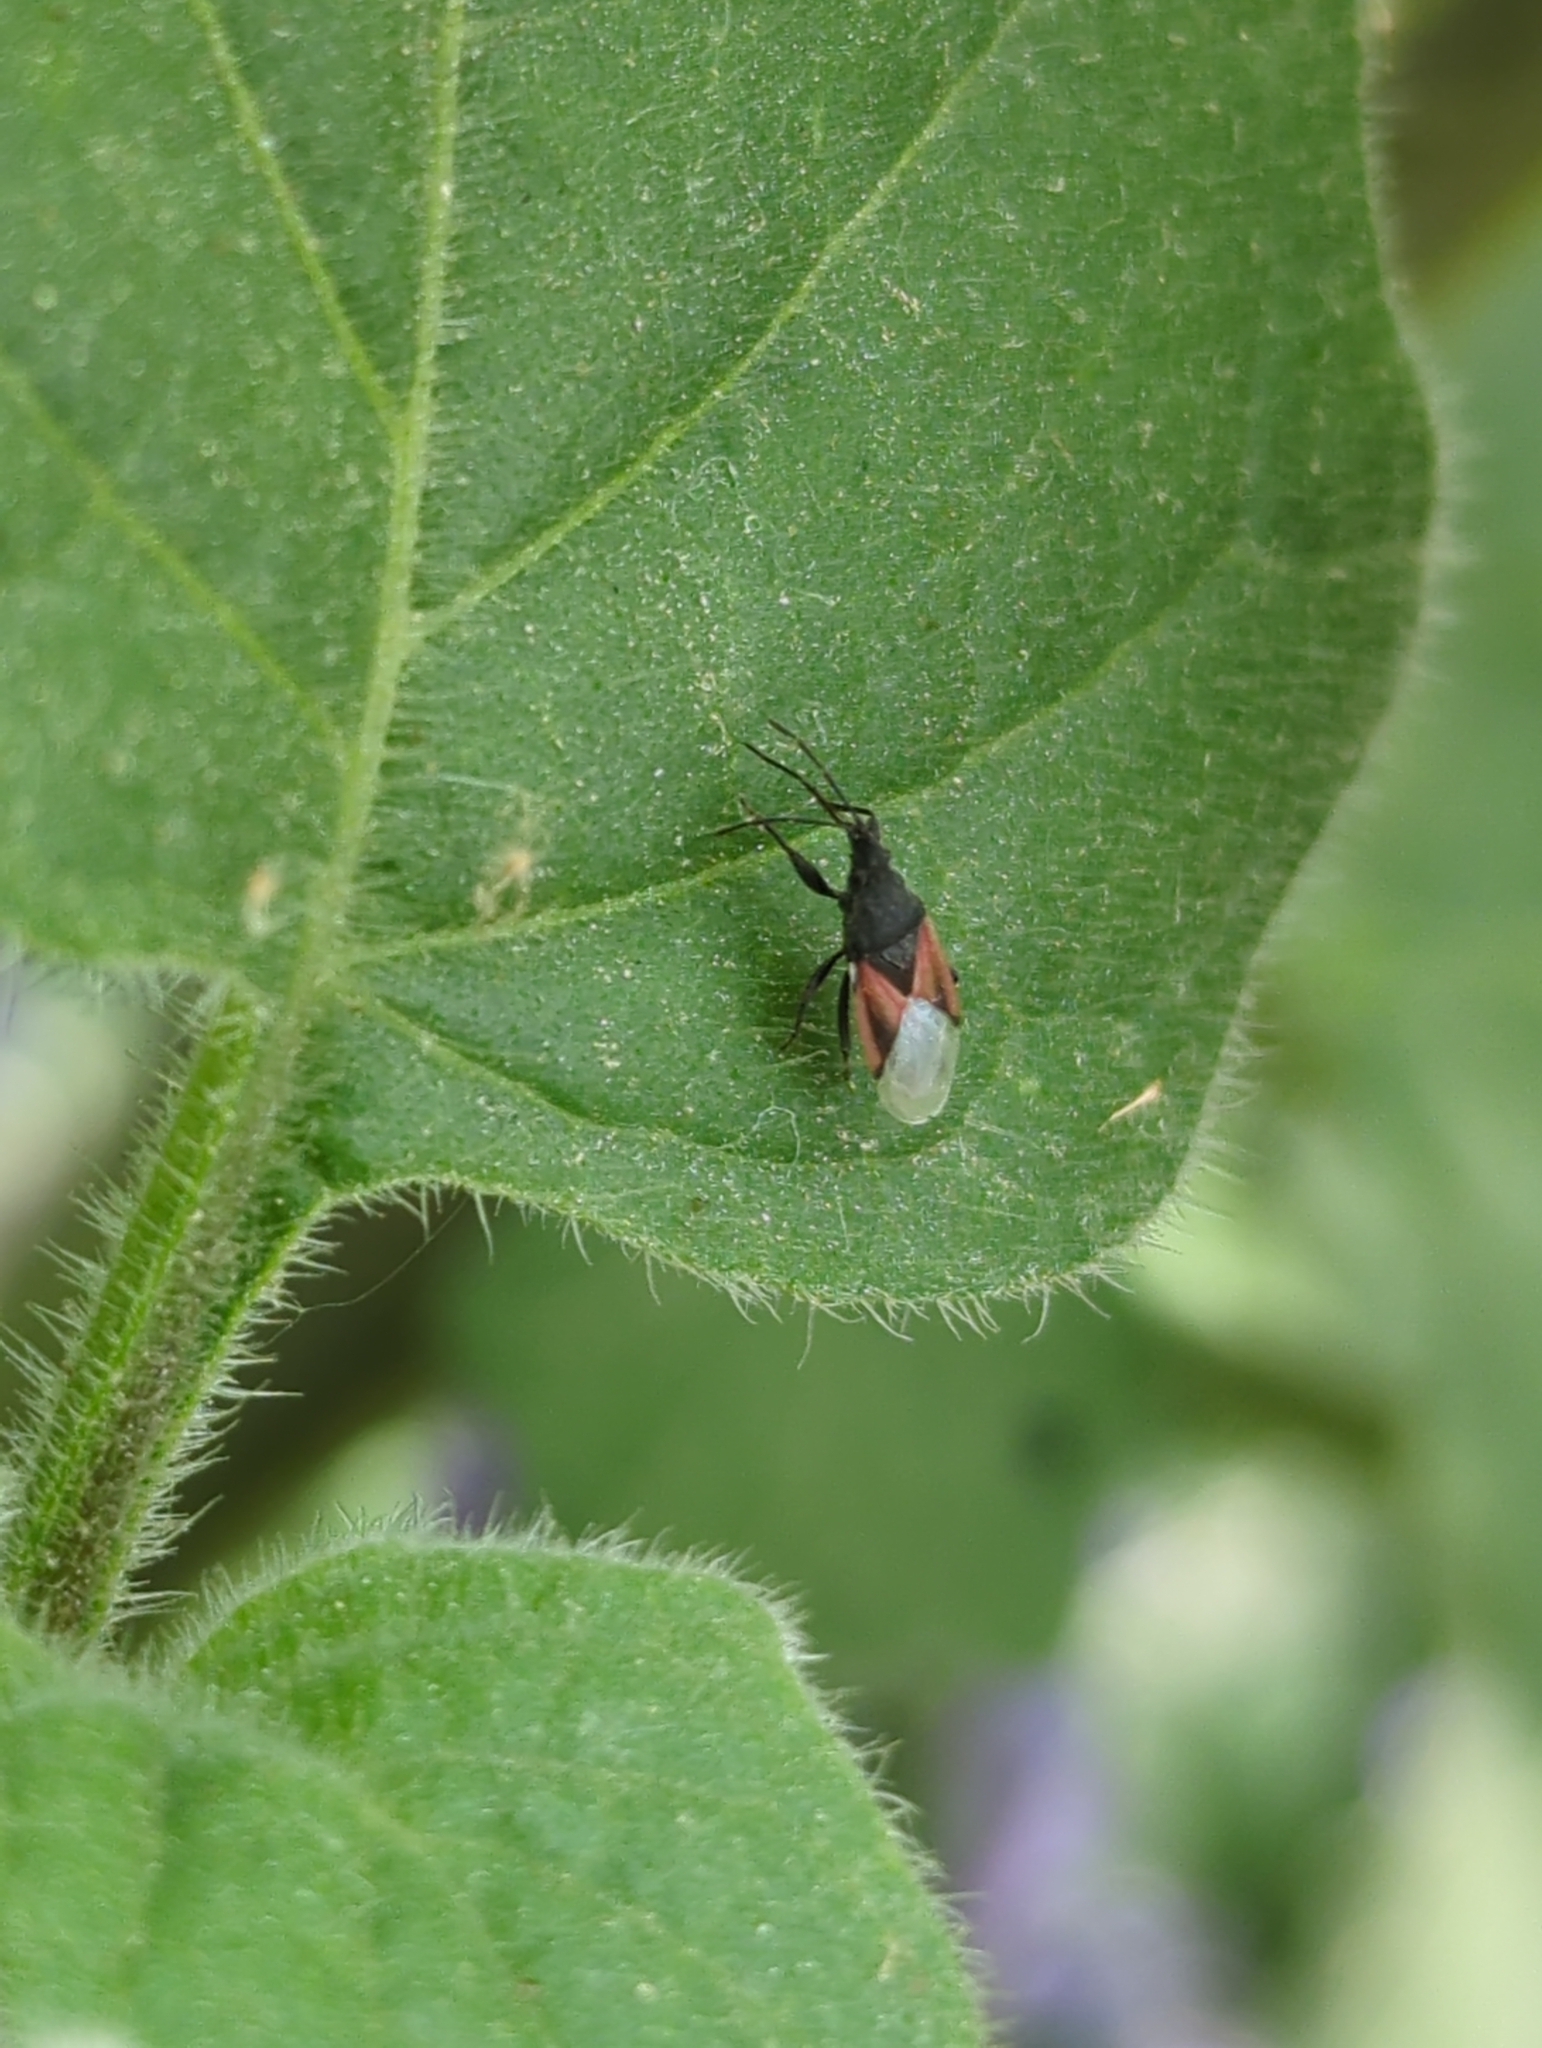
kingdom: Animalia
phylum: Arthropoda
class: Insecta
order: Hemiptera
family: Oxycarenidae
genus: Oxycarenus
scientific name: Oxycarenus lavaterae
